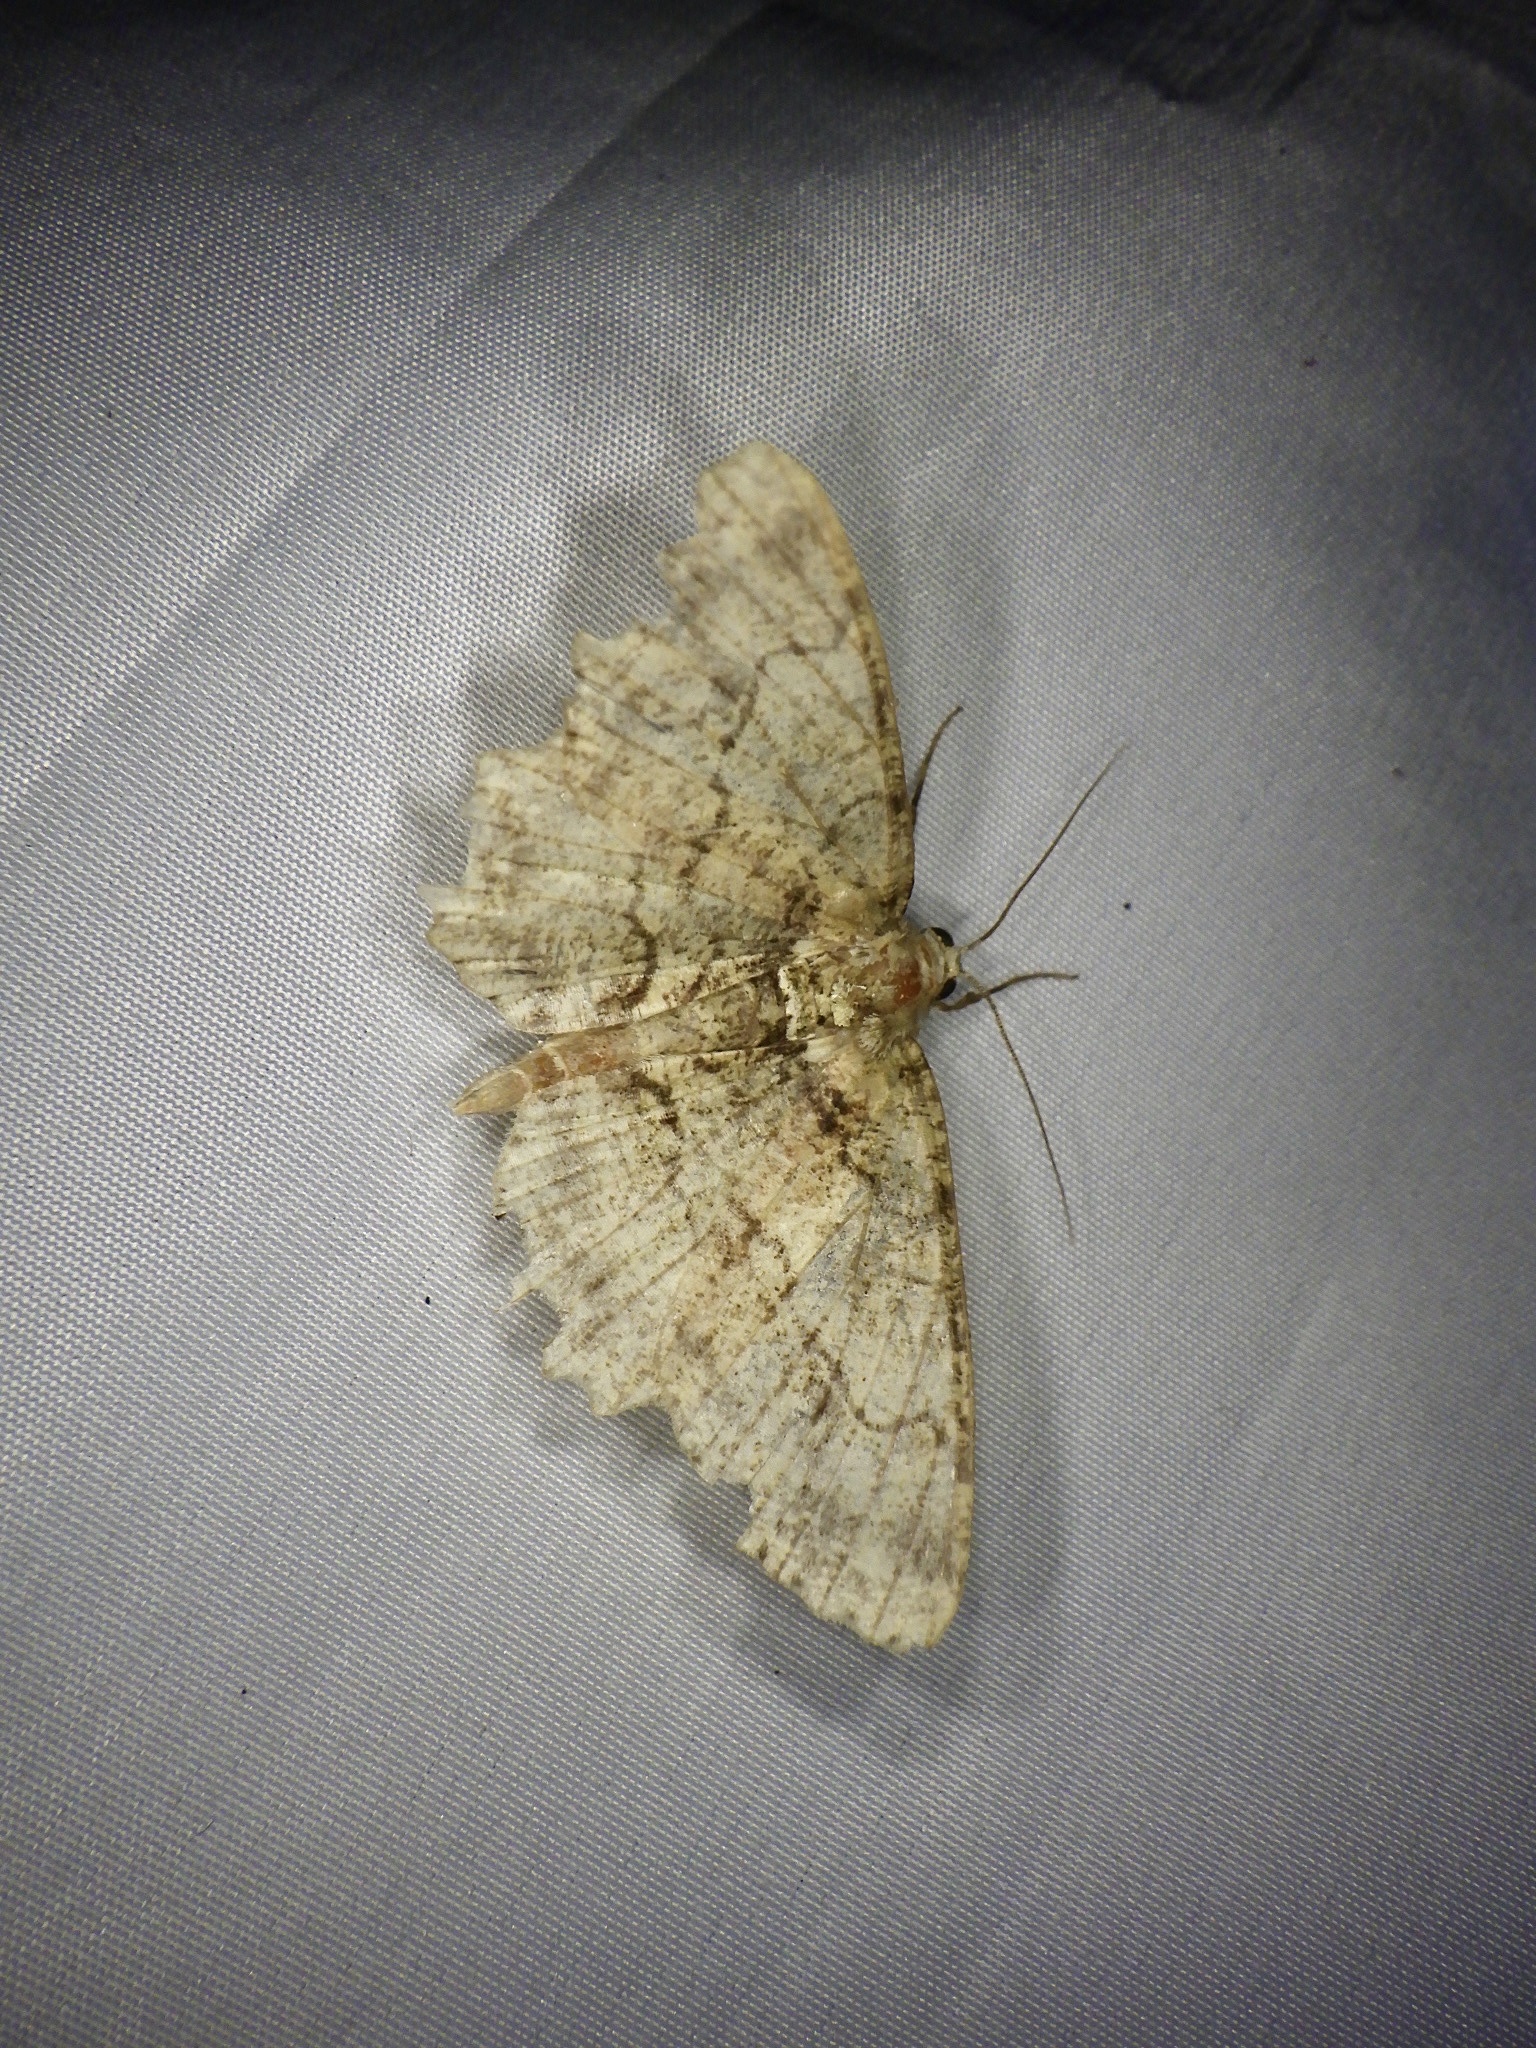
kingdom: Animalia
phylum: Arthropoda
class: Insecta
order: Lepidoptera
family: Geometridae
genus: Paradarisa
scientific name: Paradarisa chloauges
